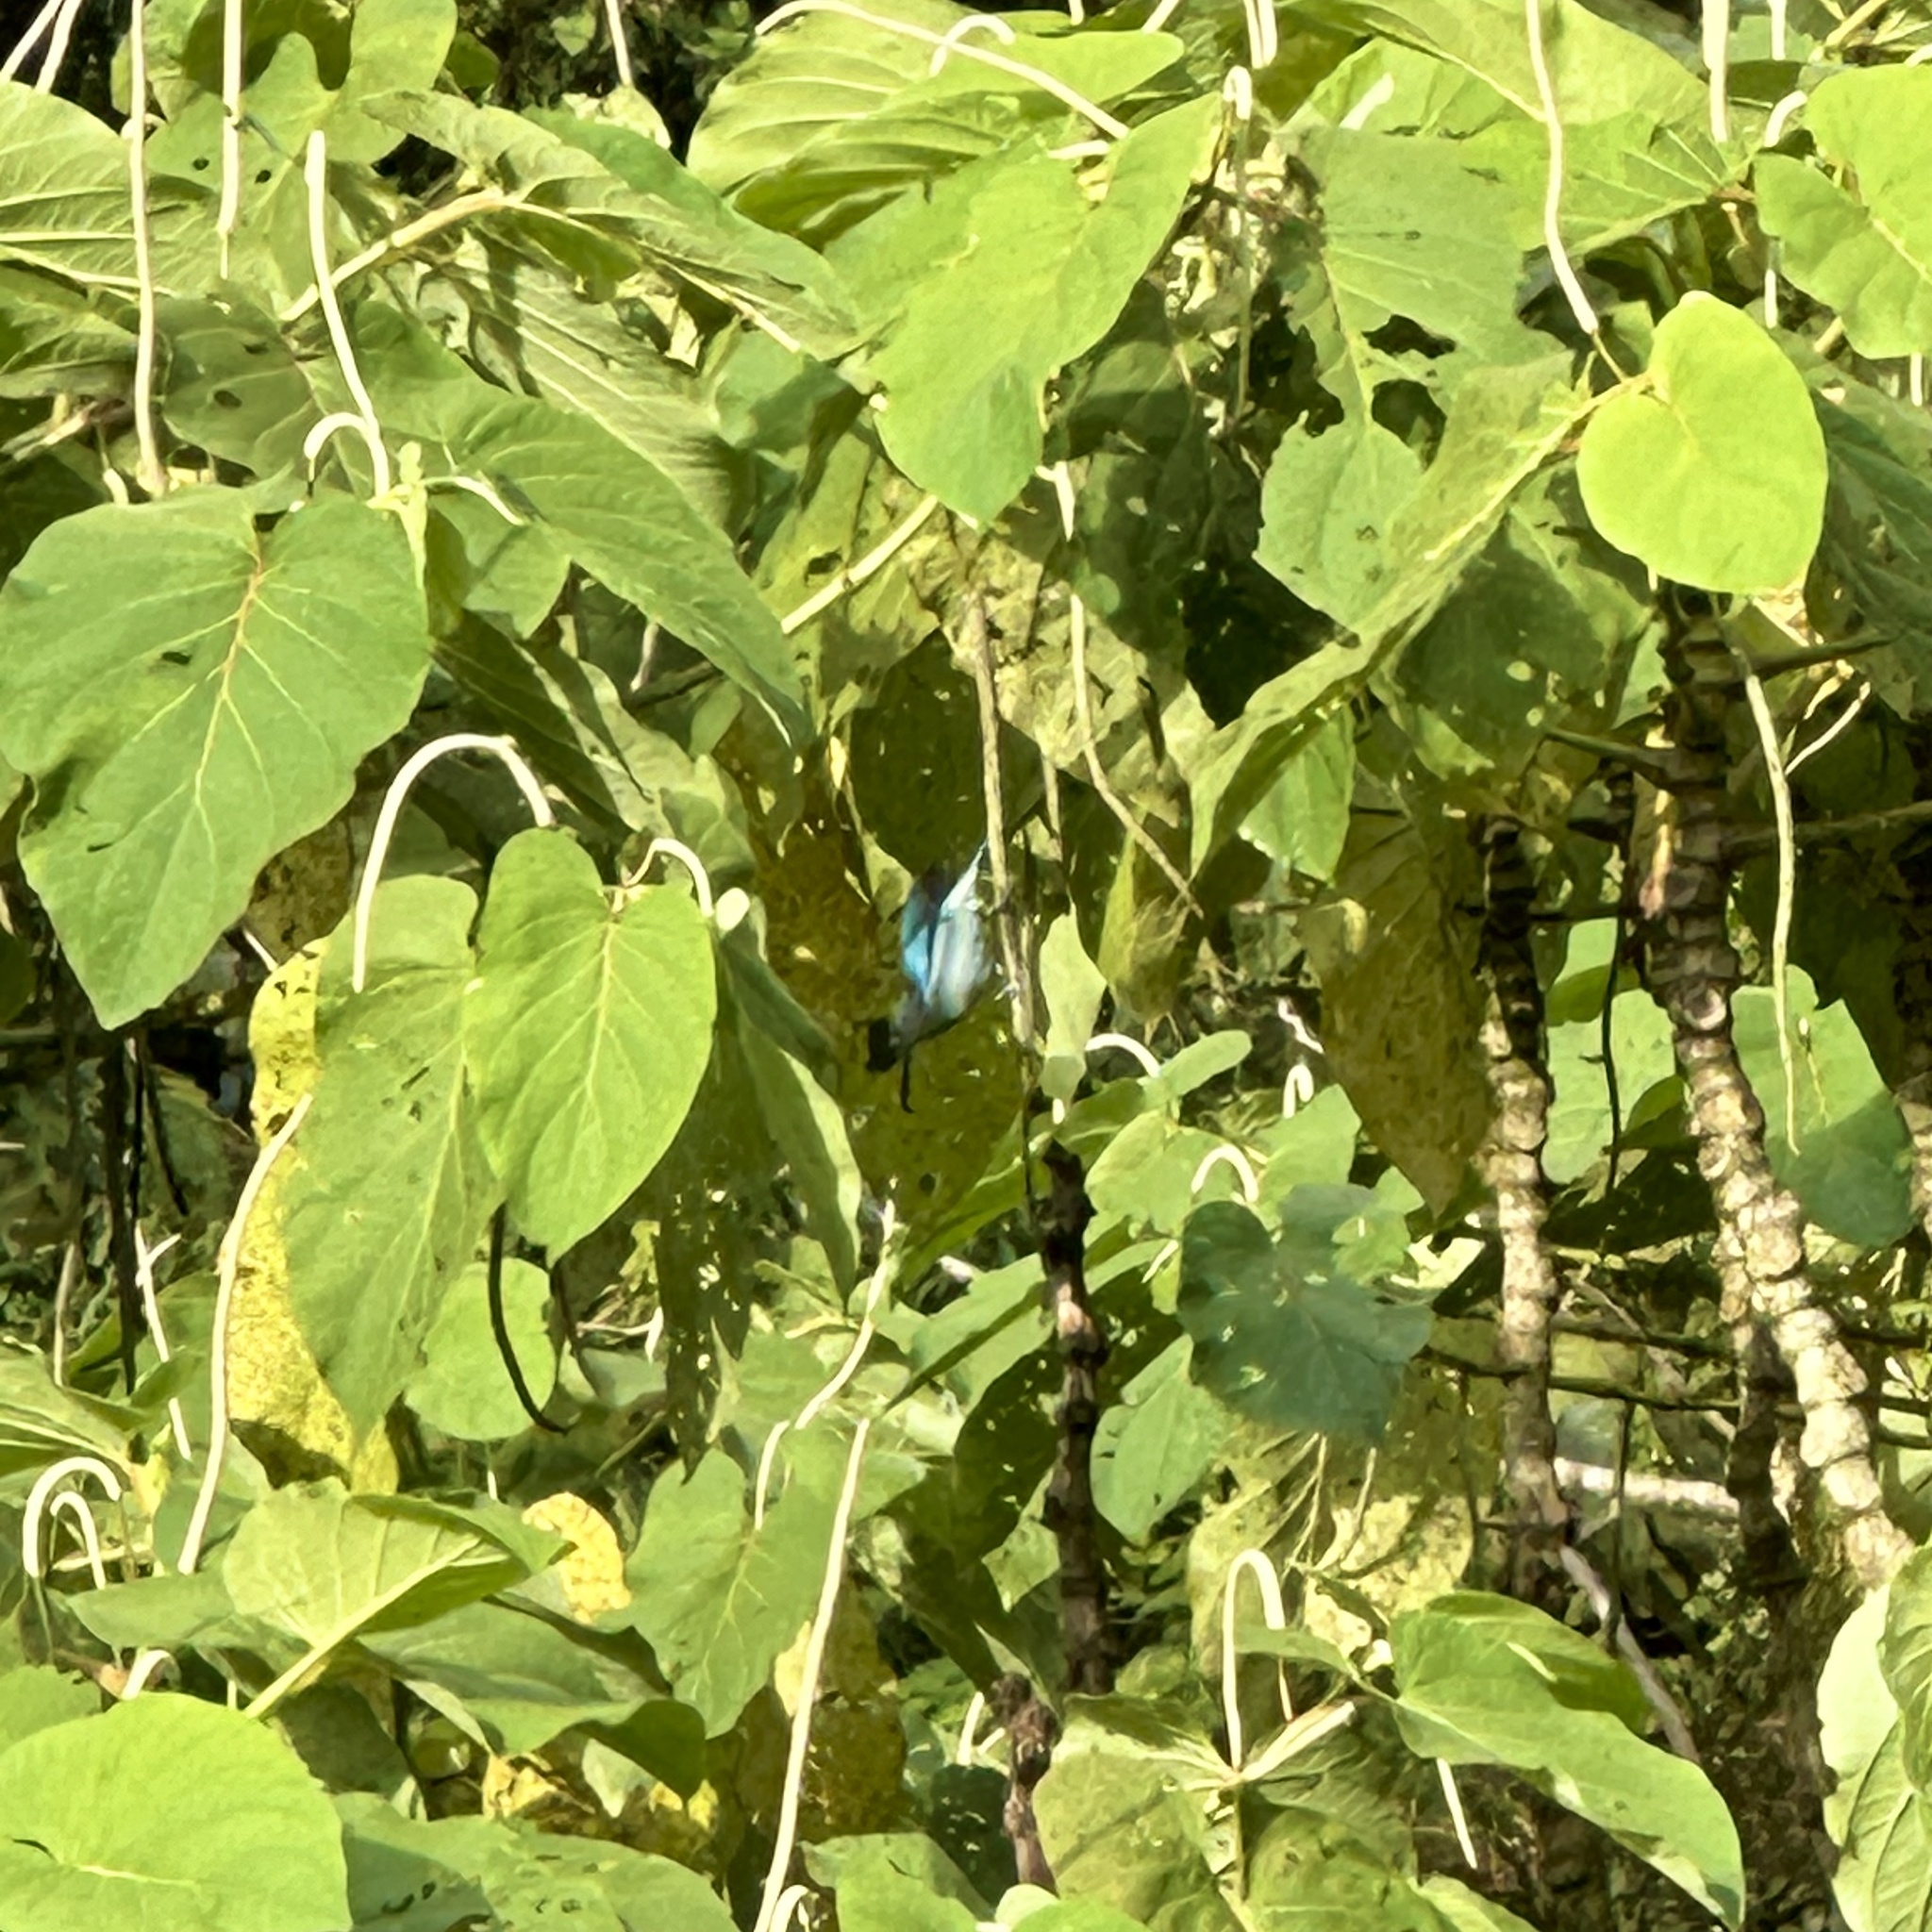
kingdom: Animalia
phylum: Chordata
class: Aves
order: Passeriformes
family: Thraupidae
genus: Thraupis
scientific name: Thraupis episcopus
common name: Blue-grey tanager
